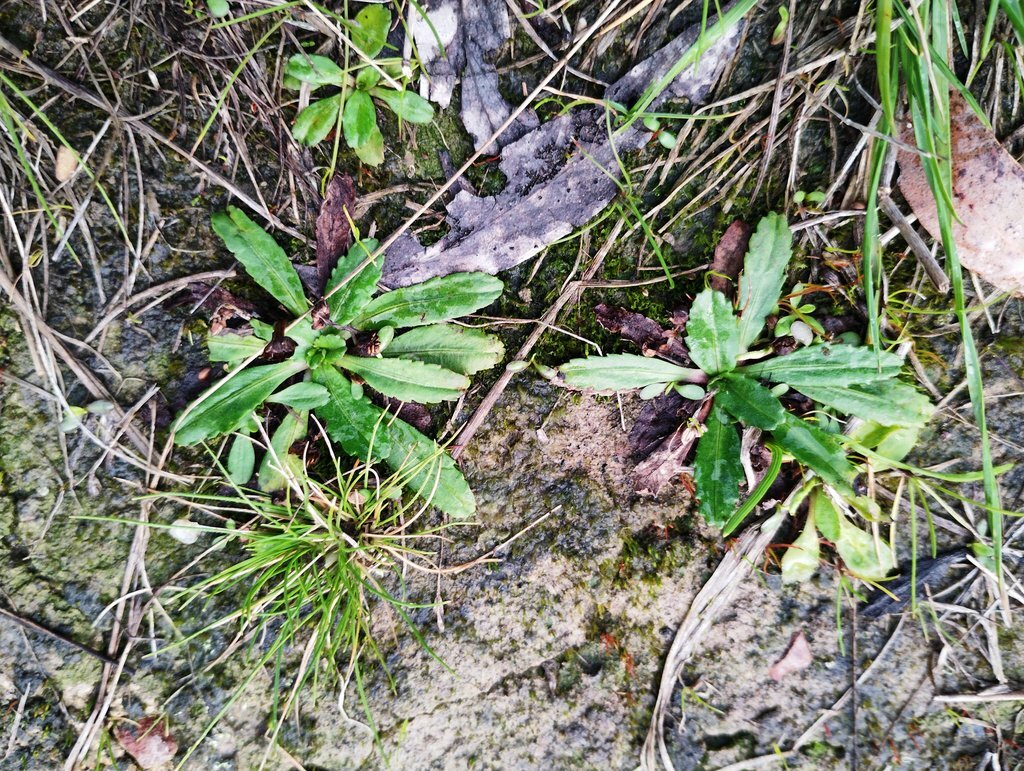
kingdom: Plantae
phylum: Tracheophyta
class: Magnoliopsida
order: Asterales
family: Asteraceae
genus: Solenogyne
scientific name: Solenogyne dominii
